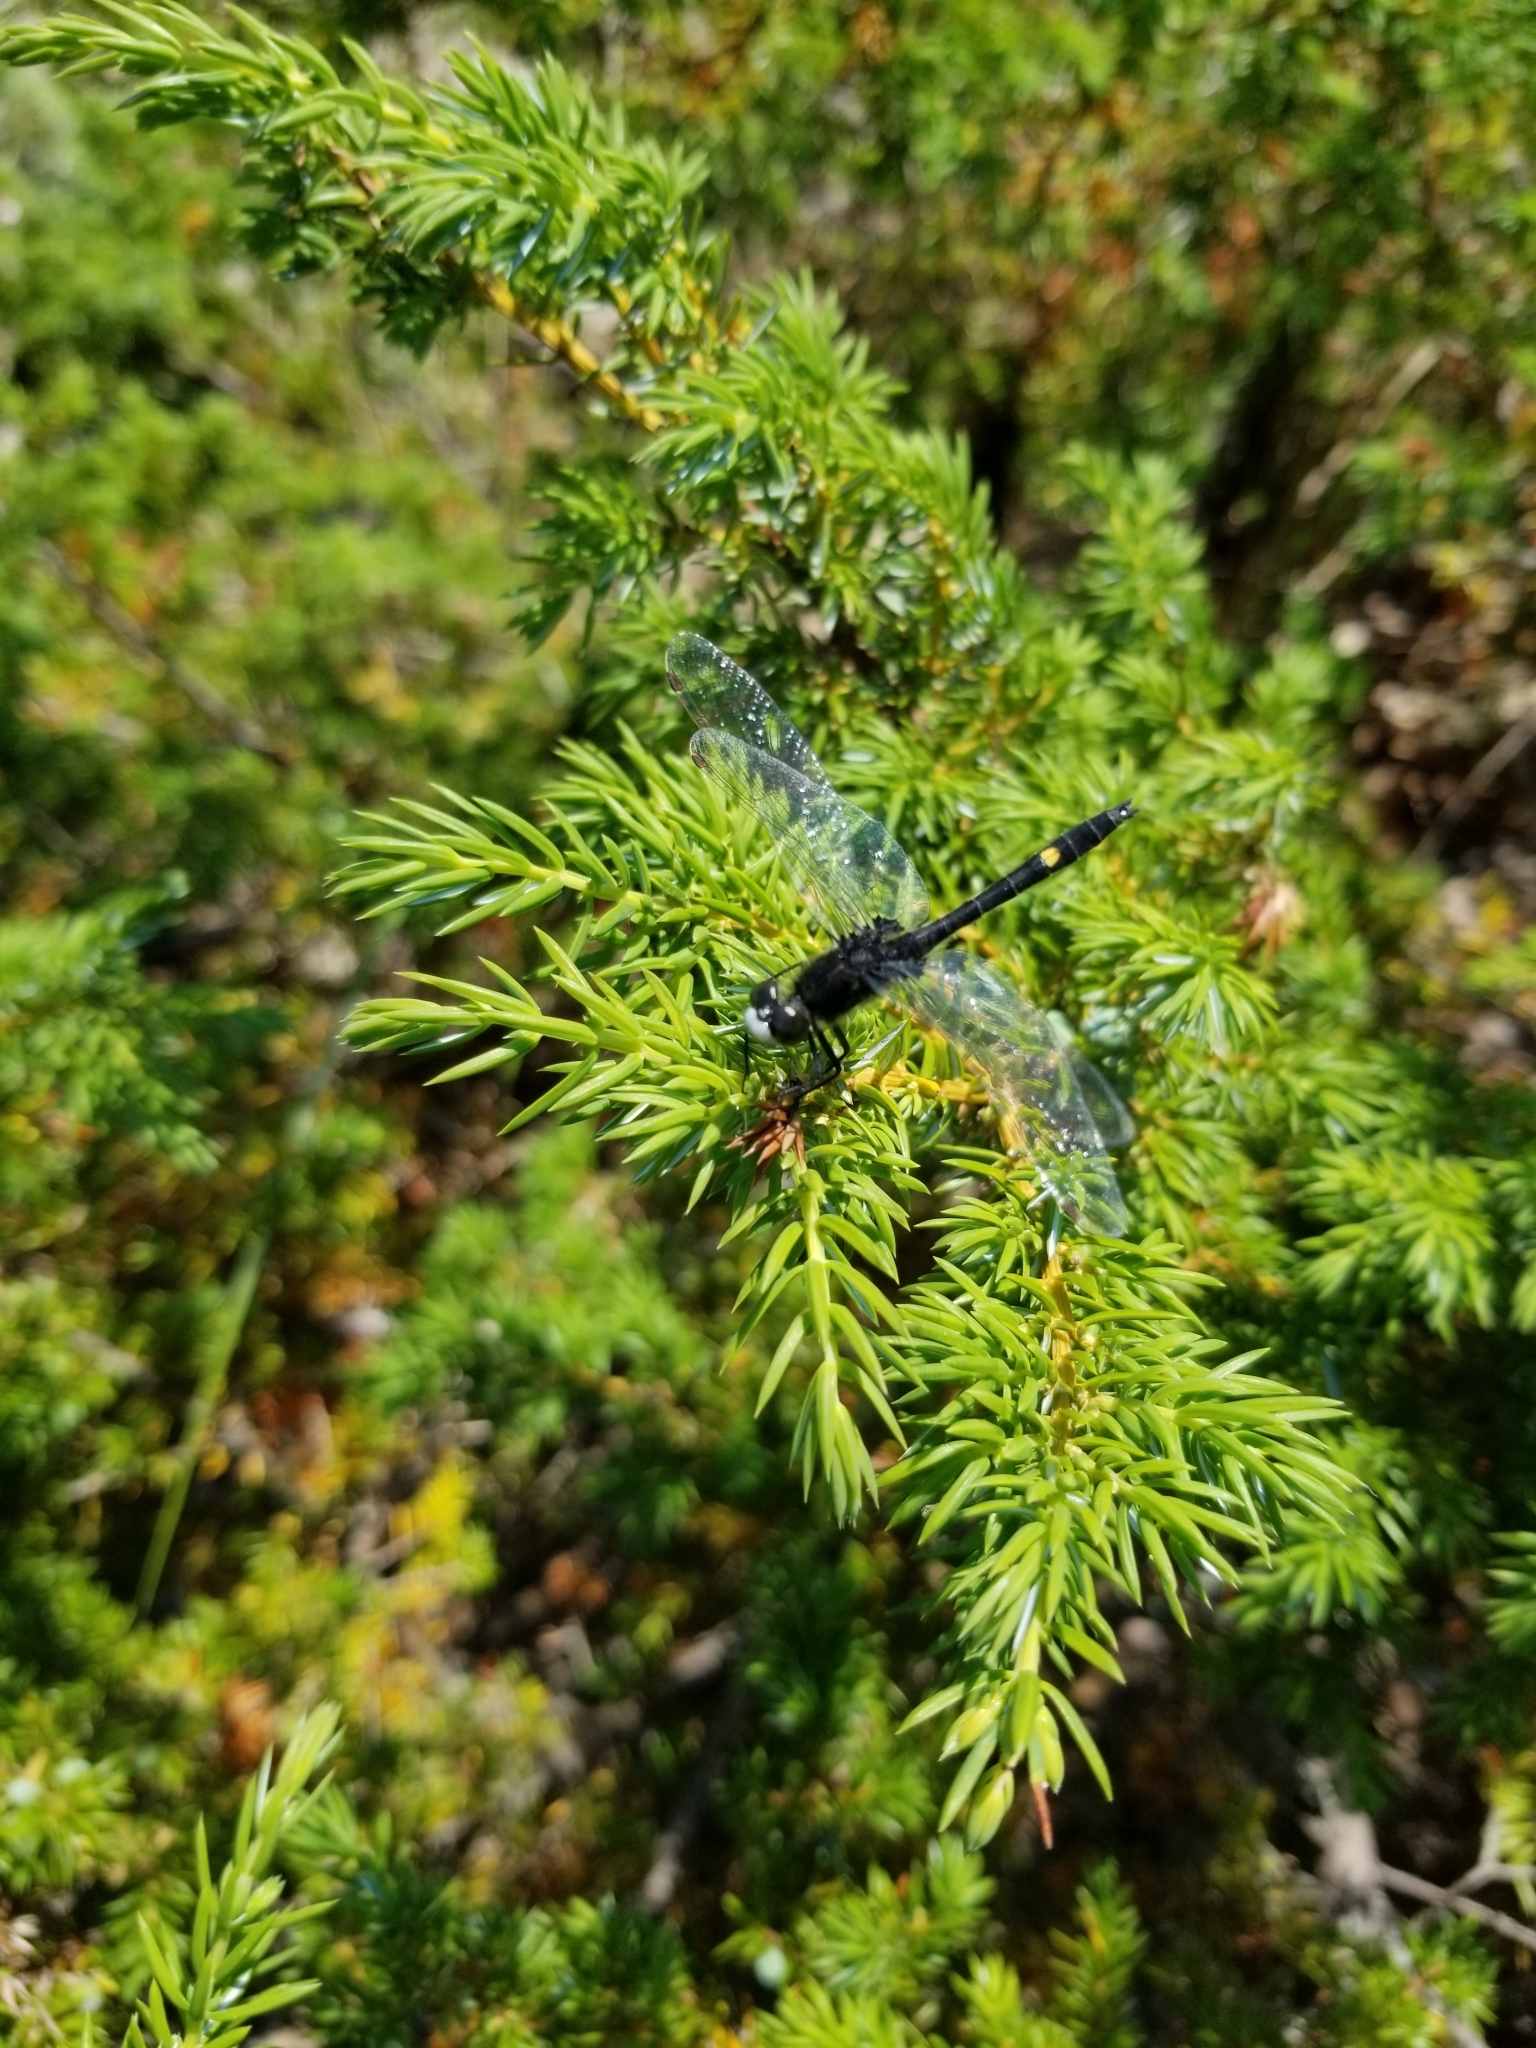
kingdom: Animalia
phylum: Arthropoda
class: Insecta
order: Odonata
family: Libellulidae
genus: Leucorrhinia
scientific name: Leucorrhinia intacta
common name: Dot-tailed whiteface
